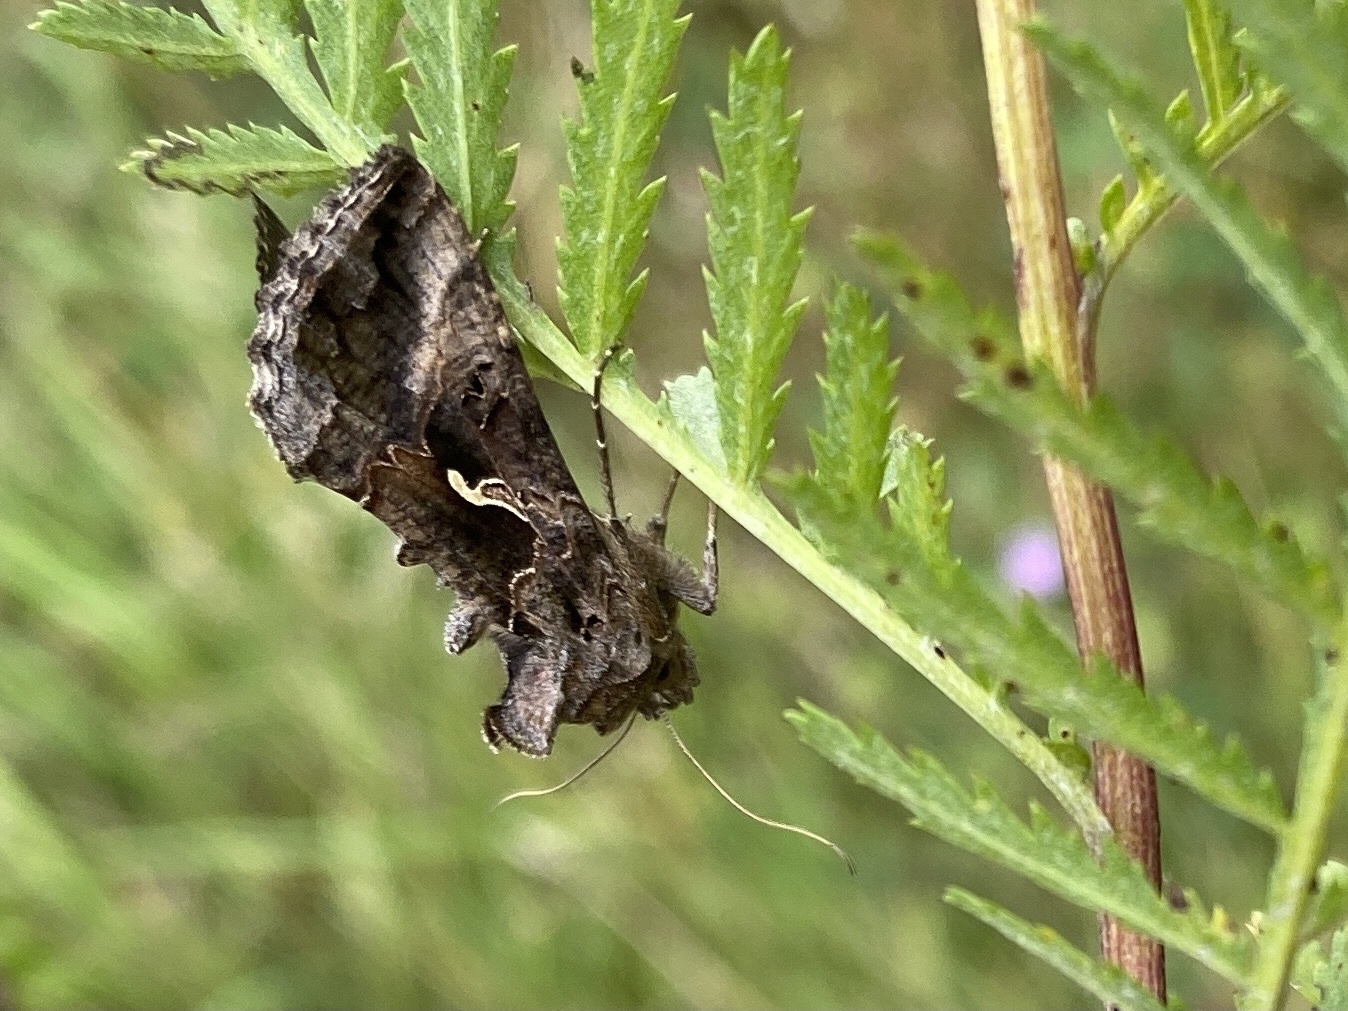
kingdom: Animalia
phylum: Arthropoda
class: Insecta
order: Lepidoptera
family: Noctuidae
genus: Autographa
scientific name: Autographa gamma
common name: Silver y
